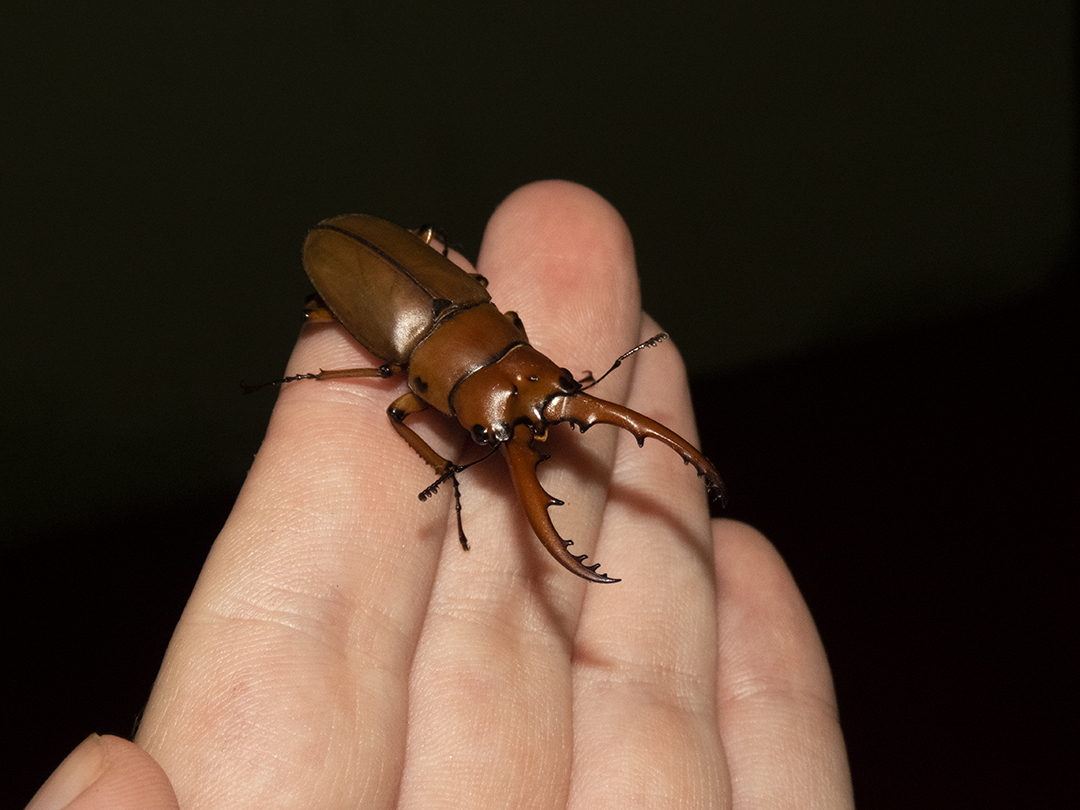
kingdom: Animalia
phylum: Arthropoda
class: Insecta
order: Coleoptera
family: Lucanidae
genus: Prosopocoilus
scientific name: Prosopocoilus astacoides
